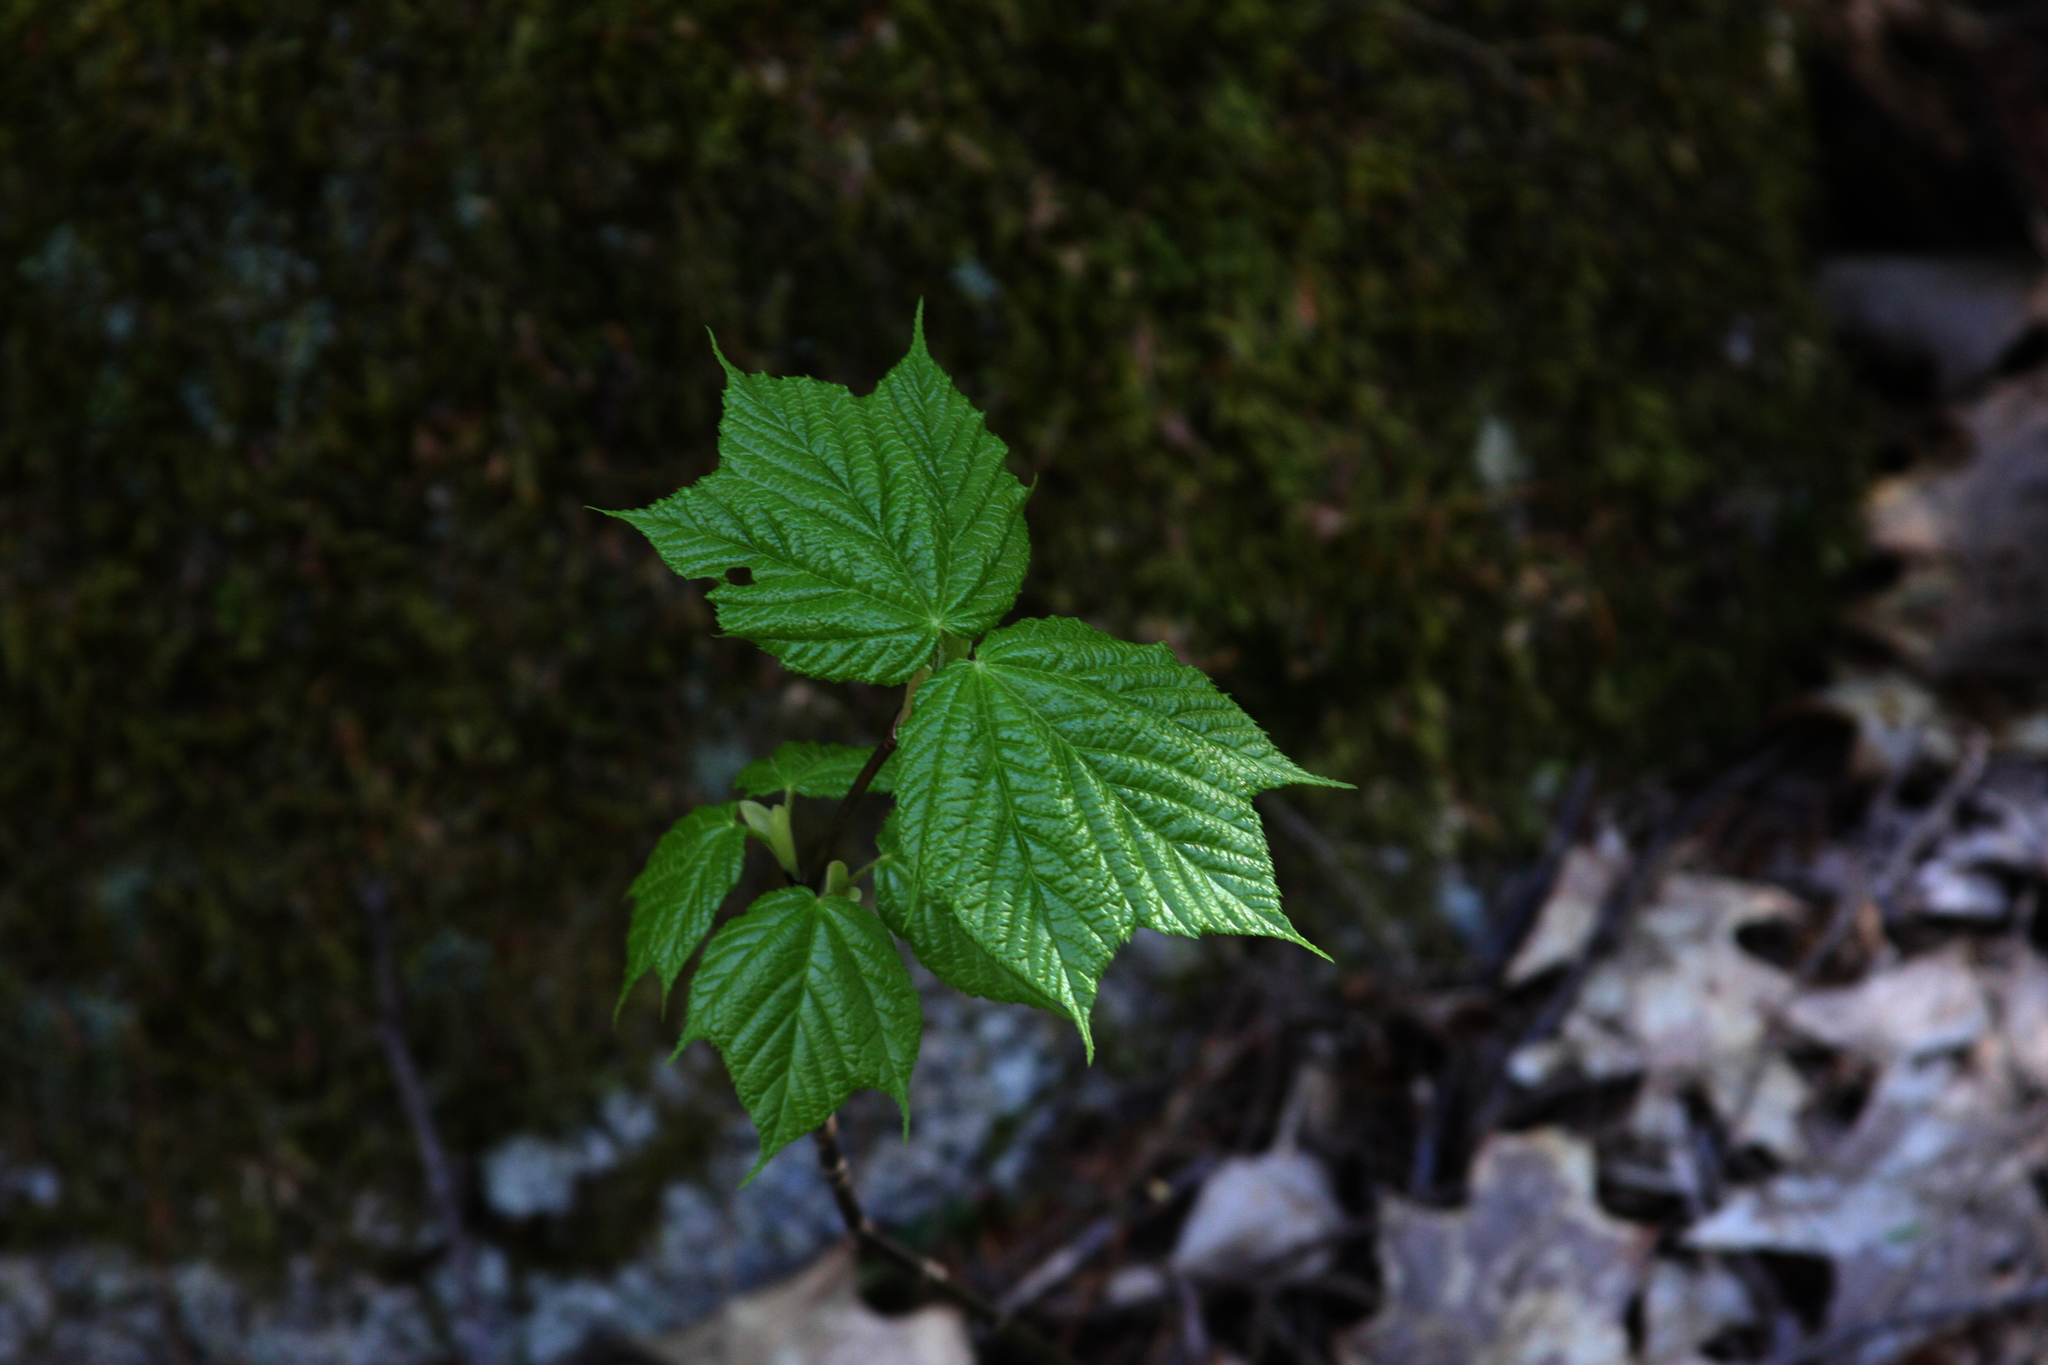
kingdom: Plantae
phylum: Tracheophyta
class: Magnoliopsida
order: Sapindales
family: Sapindaceae
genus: Acer
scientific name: Acer pensylvanicum
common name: Moosewood
